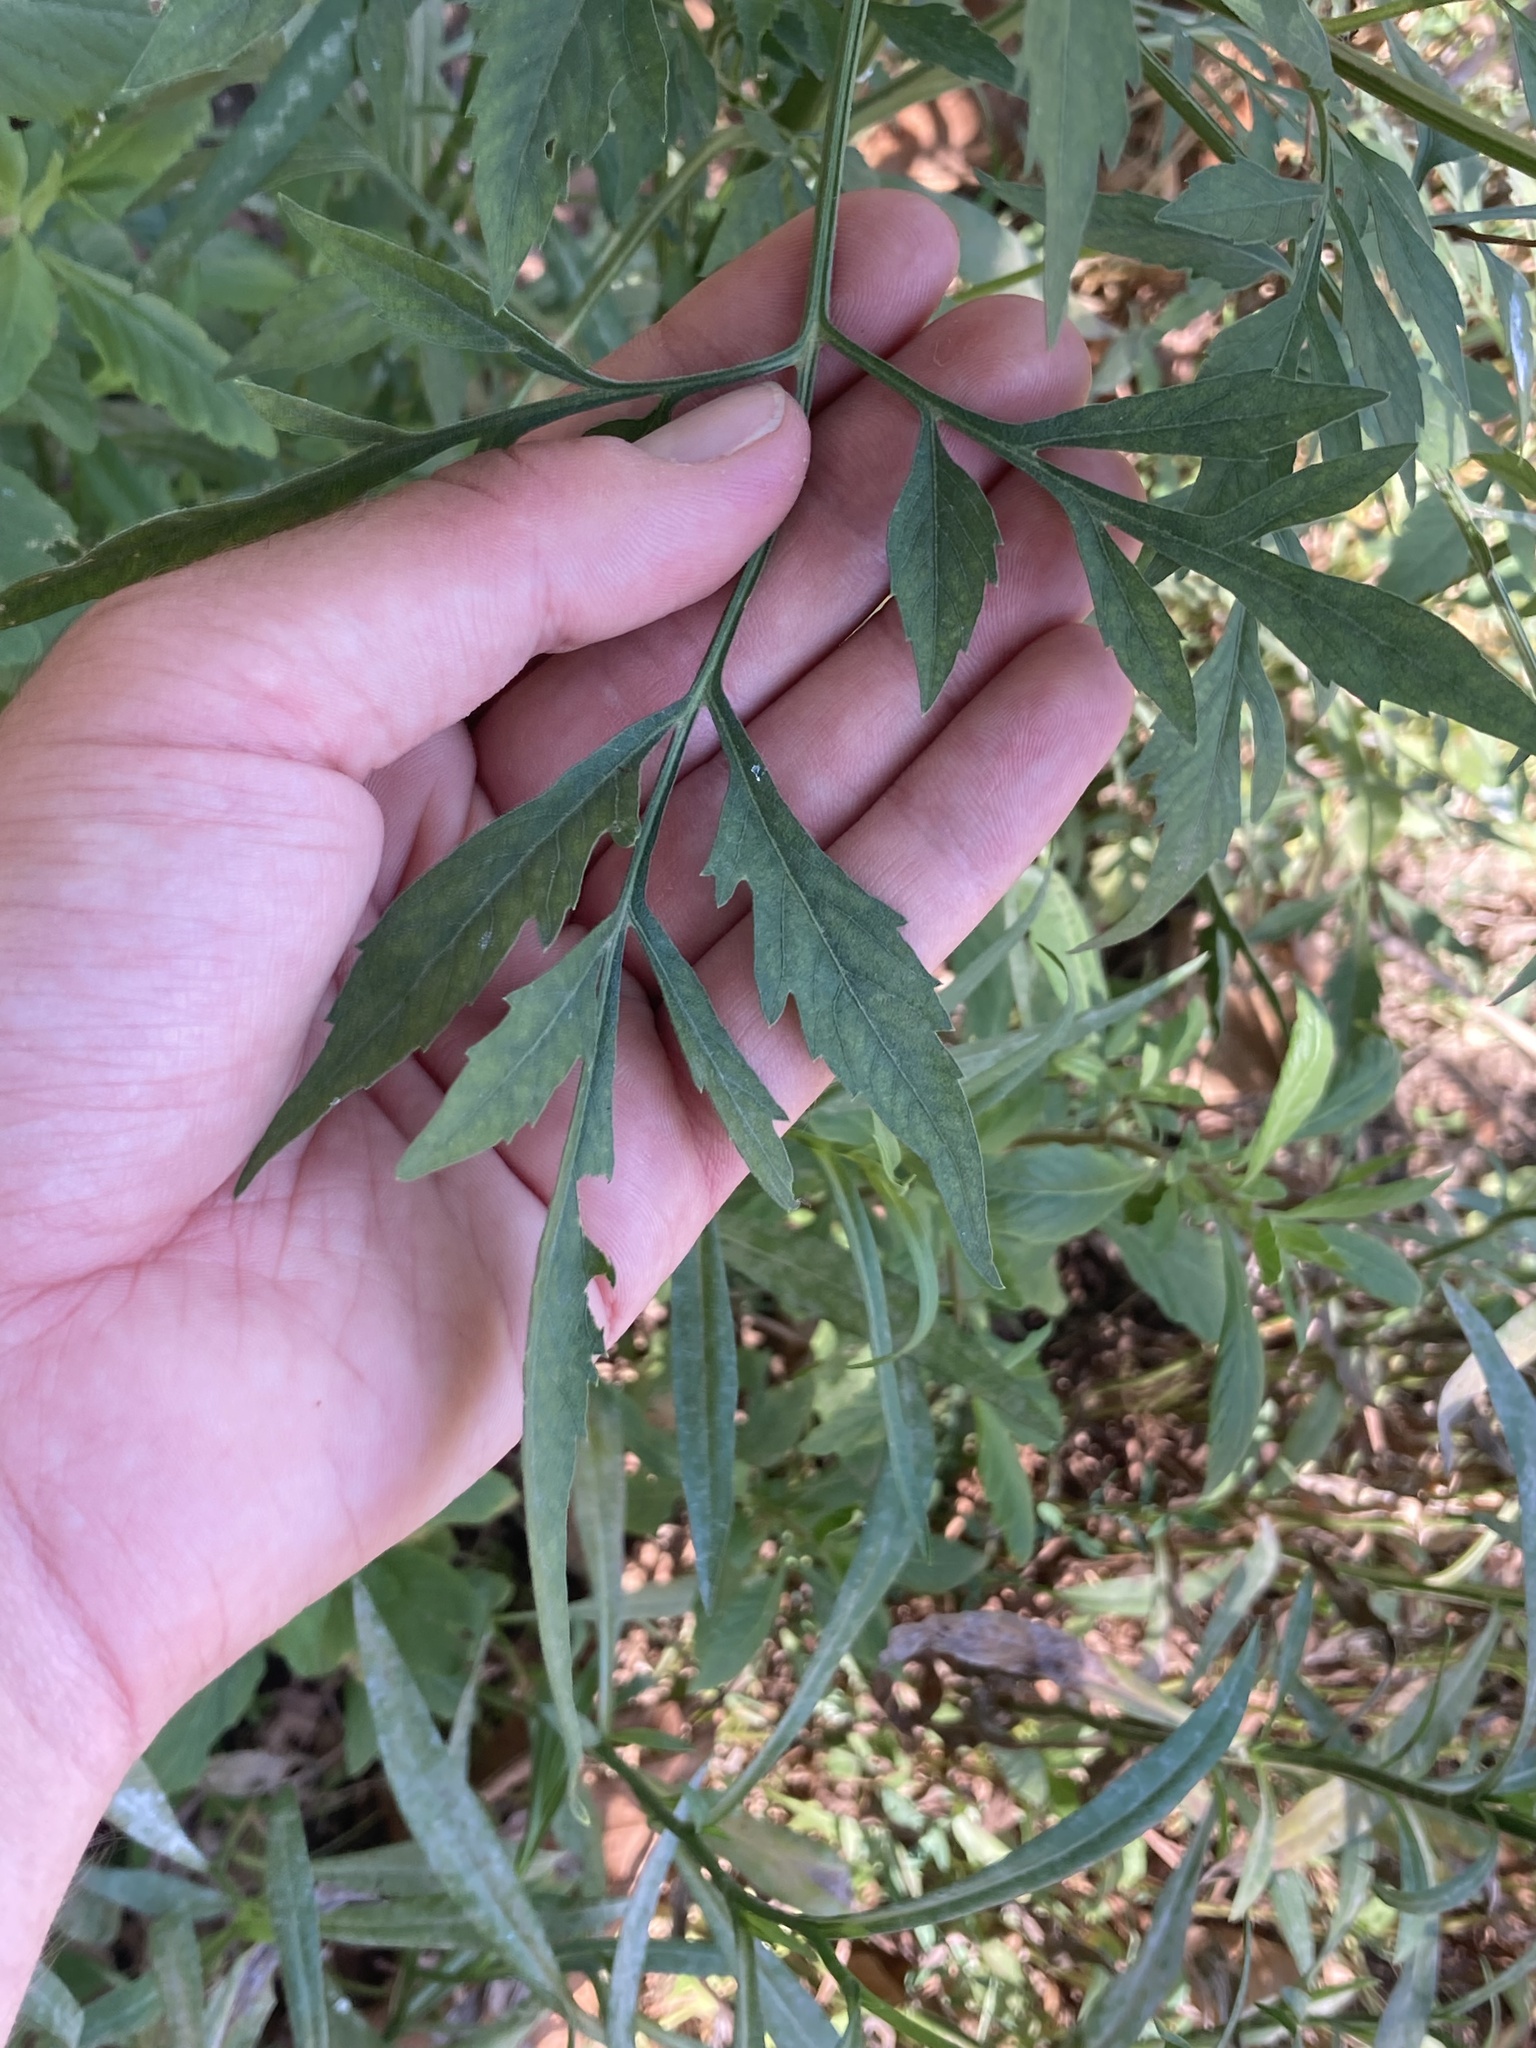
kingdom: Plantae
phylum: Tracheophyta
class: Magnoliopsida
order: Asterales
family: Asteraceae
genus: Bidens
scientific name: Bidens subalternans
